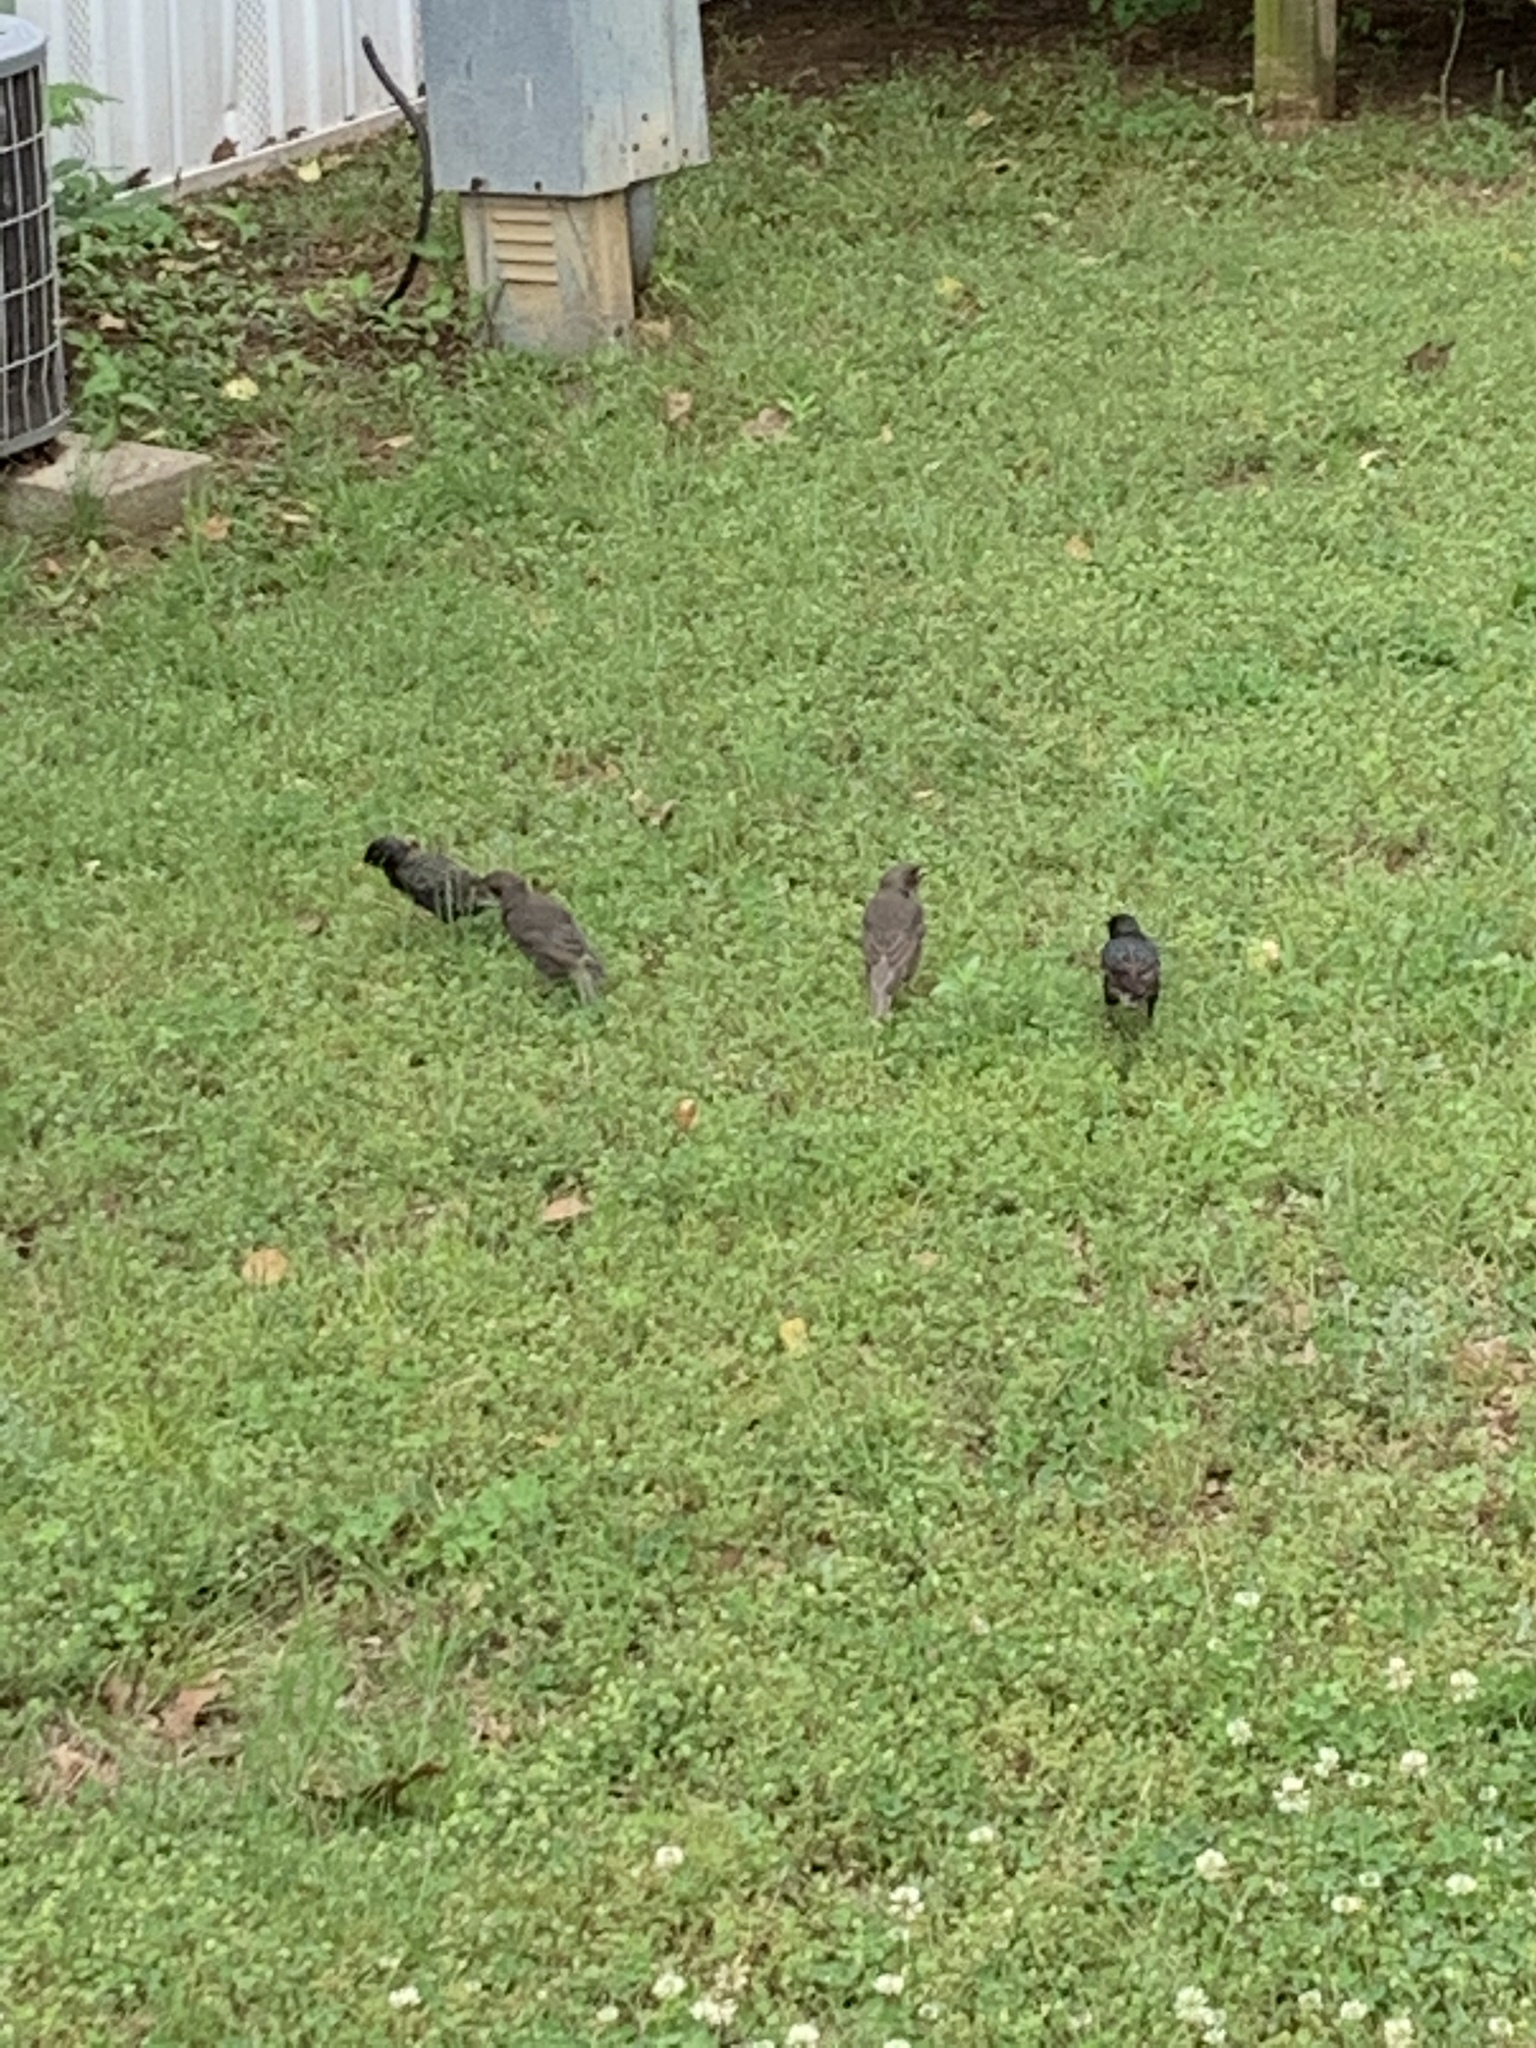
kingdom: Animalia
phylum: Chordata
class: Aves
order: Passeriformes
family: Sturnidae
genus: Sturnus
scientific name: Sturnus vulgaris
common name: Common starling
